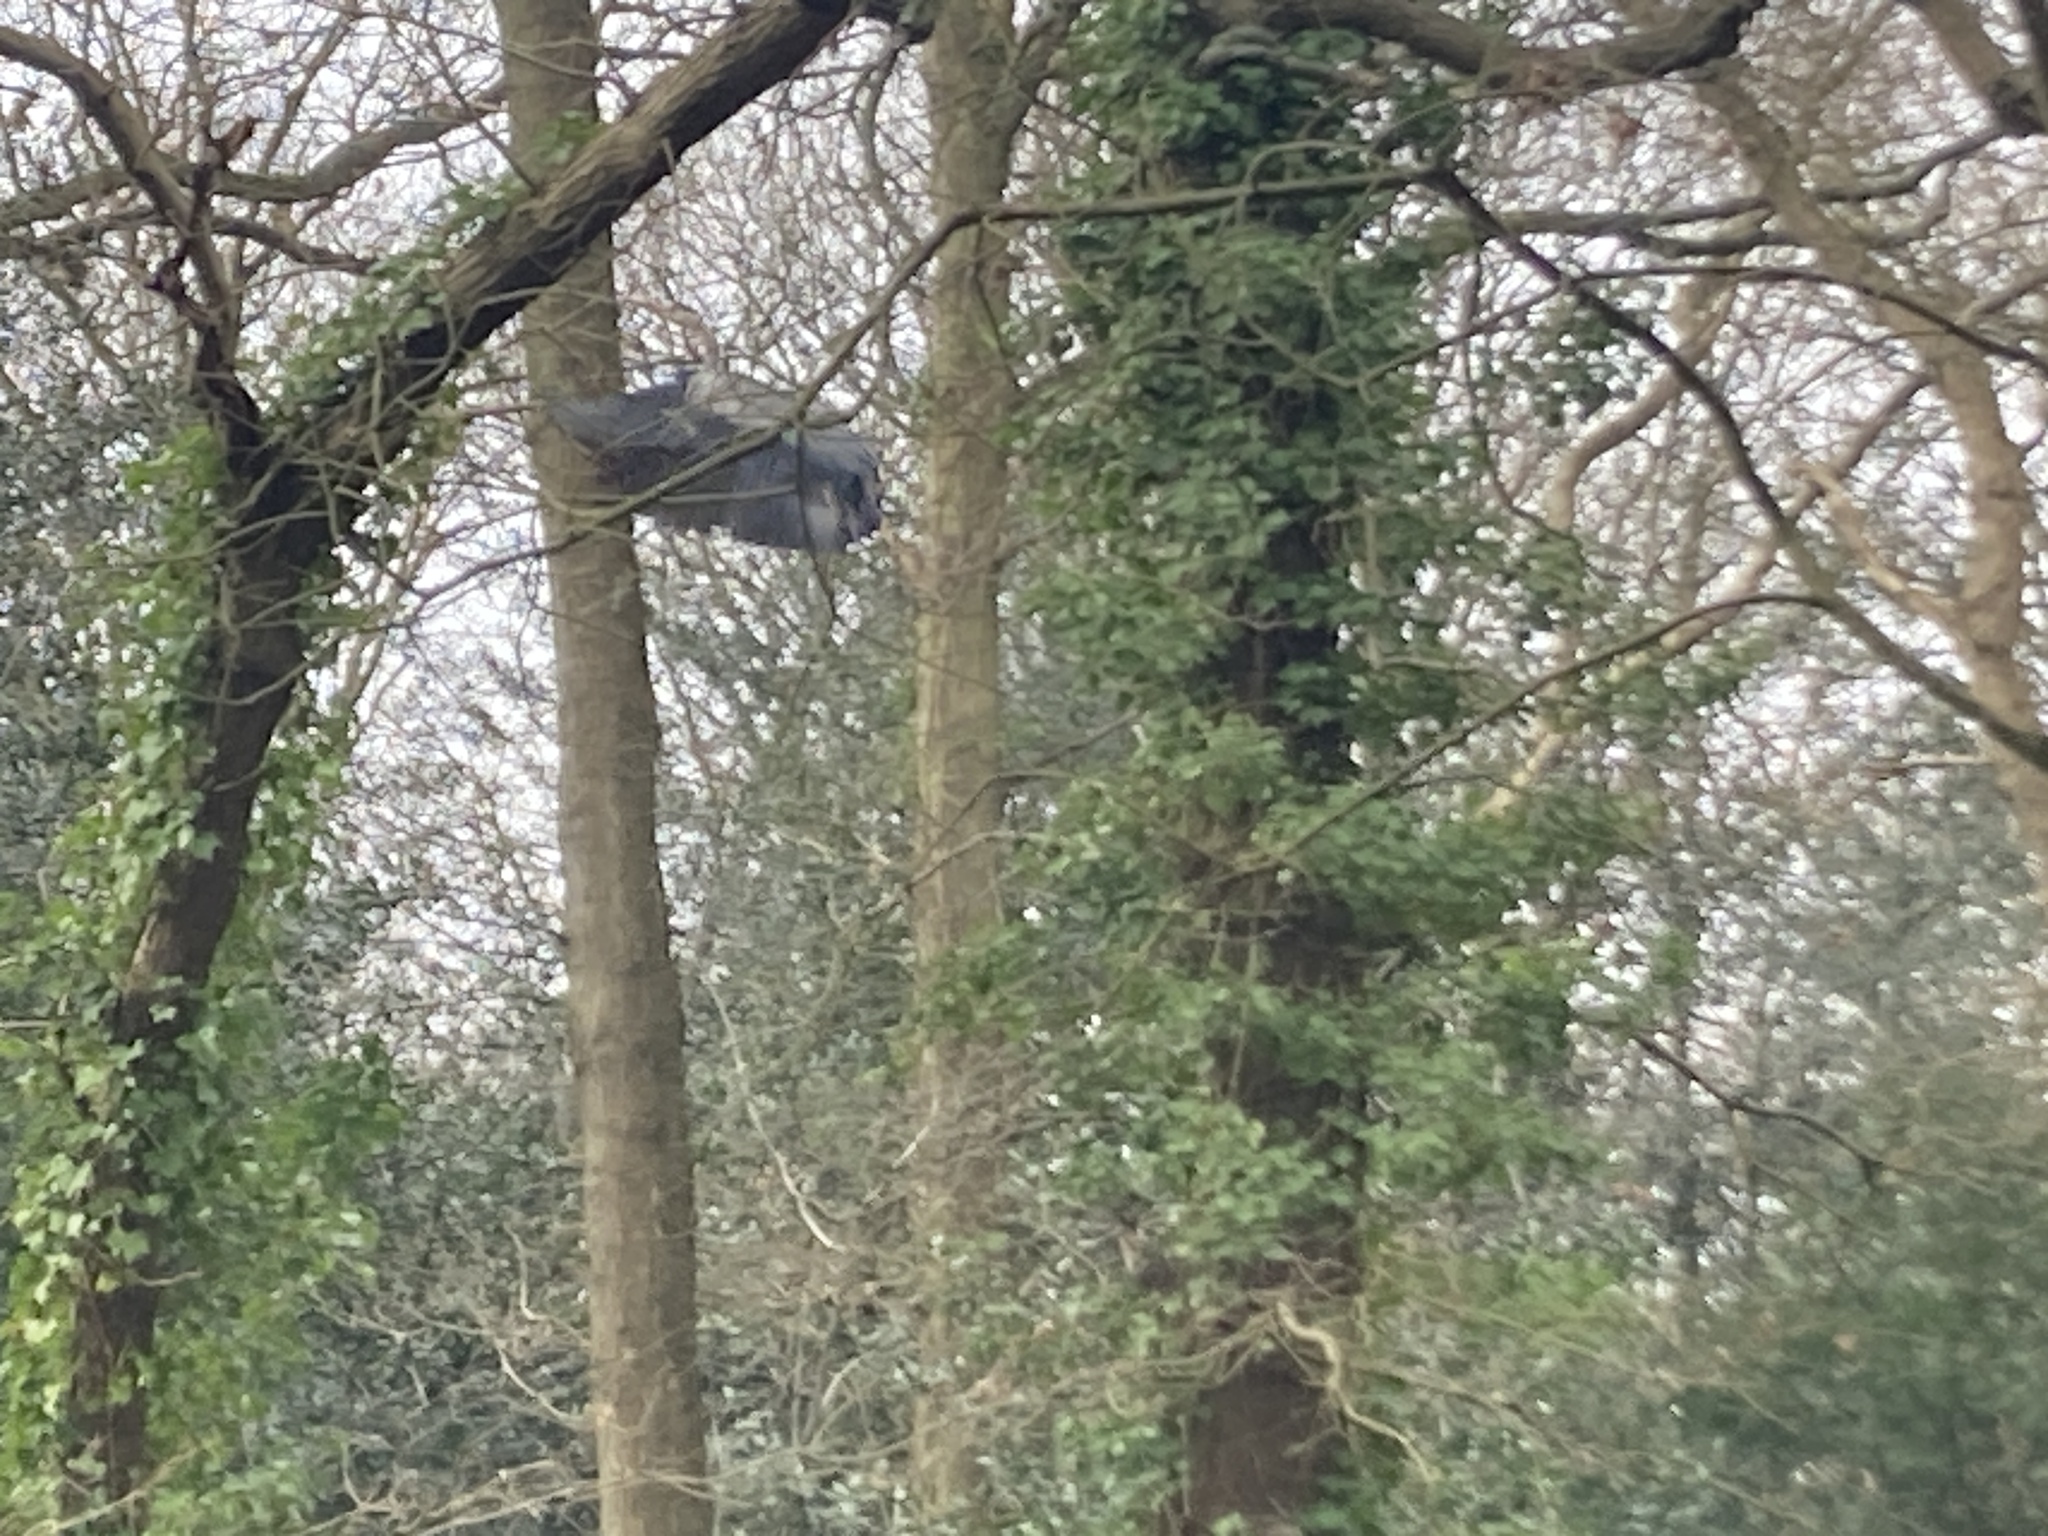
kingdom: Animalia
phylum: Chordata
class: Aves
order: Pelecaniformes
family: Ardeidae
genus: Ardea
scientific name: Ardea cinerea
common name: Grey heron
